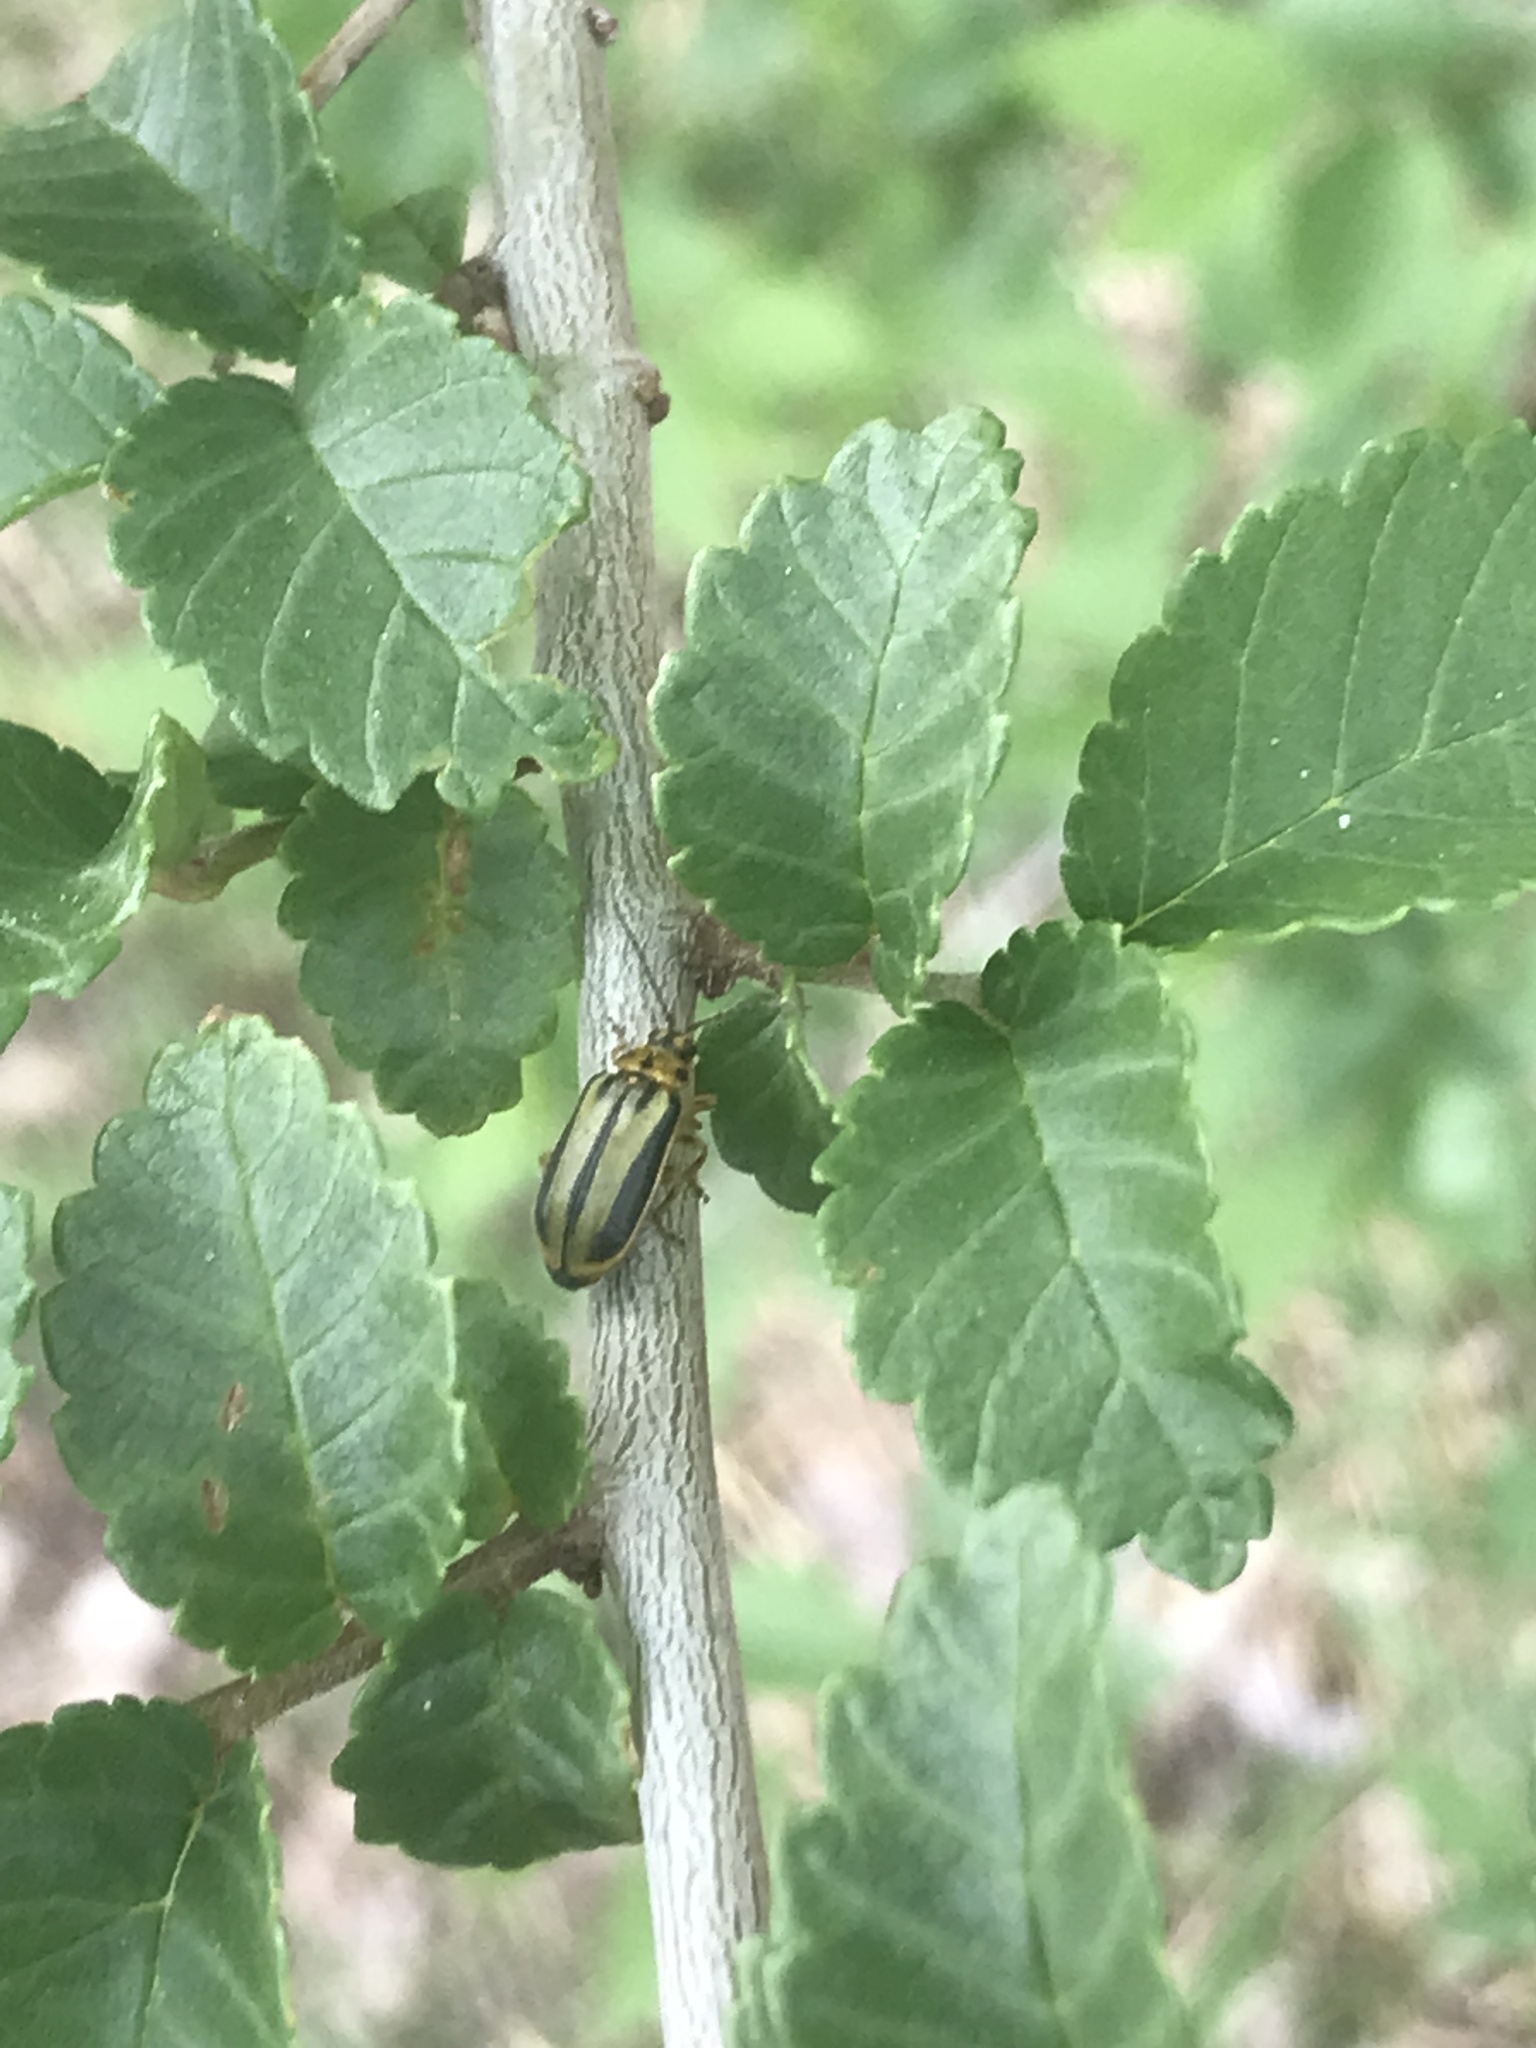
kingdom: Animalia
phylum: Arthropoda
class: Insecta
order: Coleoptera
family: Chrysomelidae
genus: Xanthogaleruca
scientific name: Xanthogaleruca luteola
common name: Elm leaf beetle
